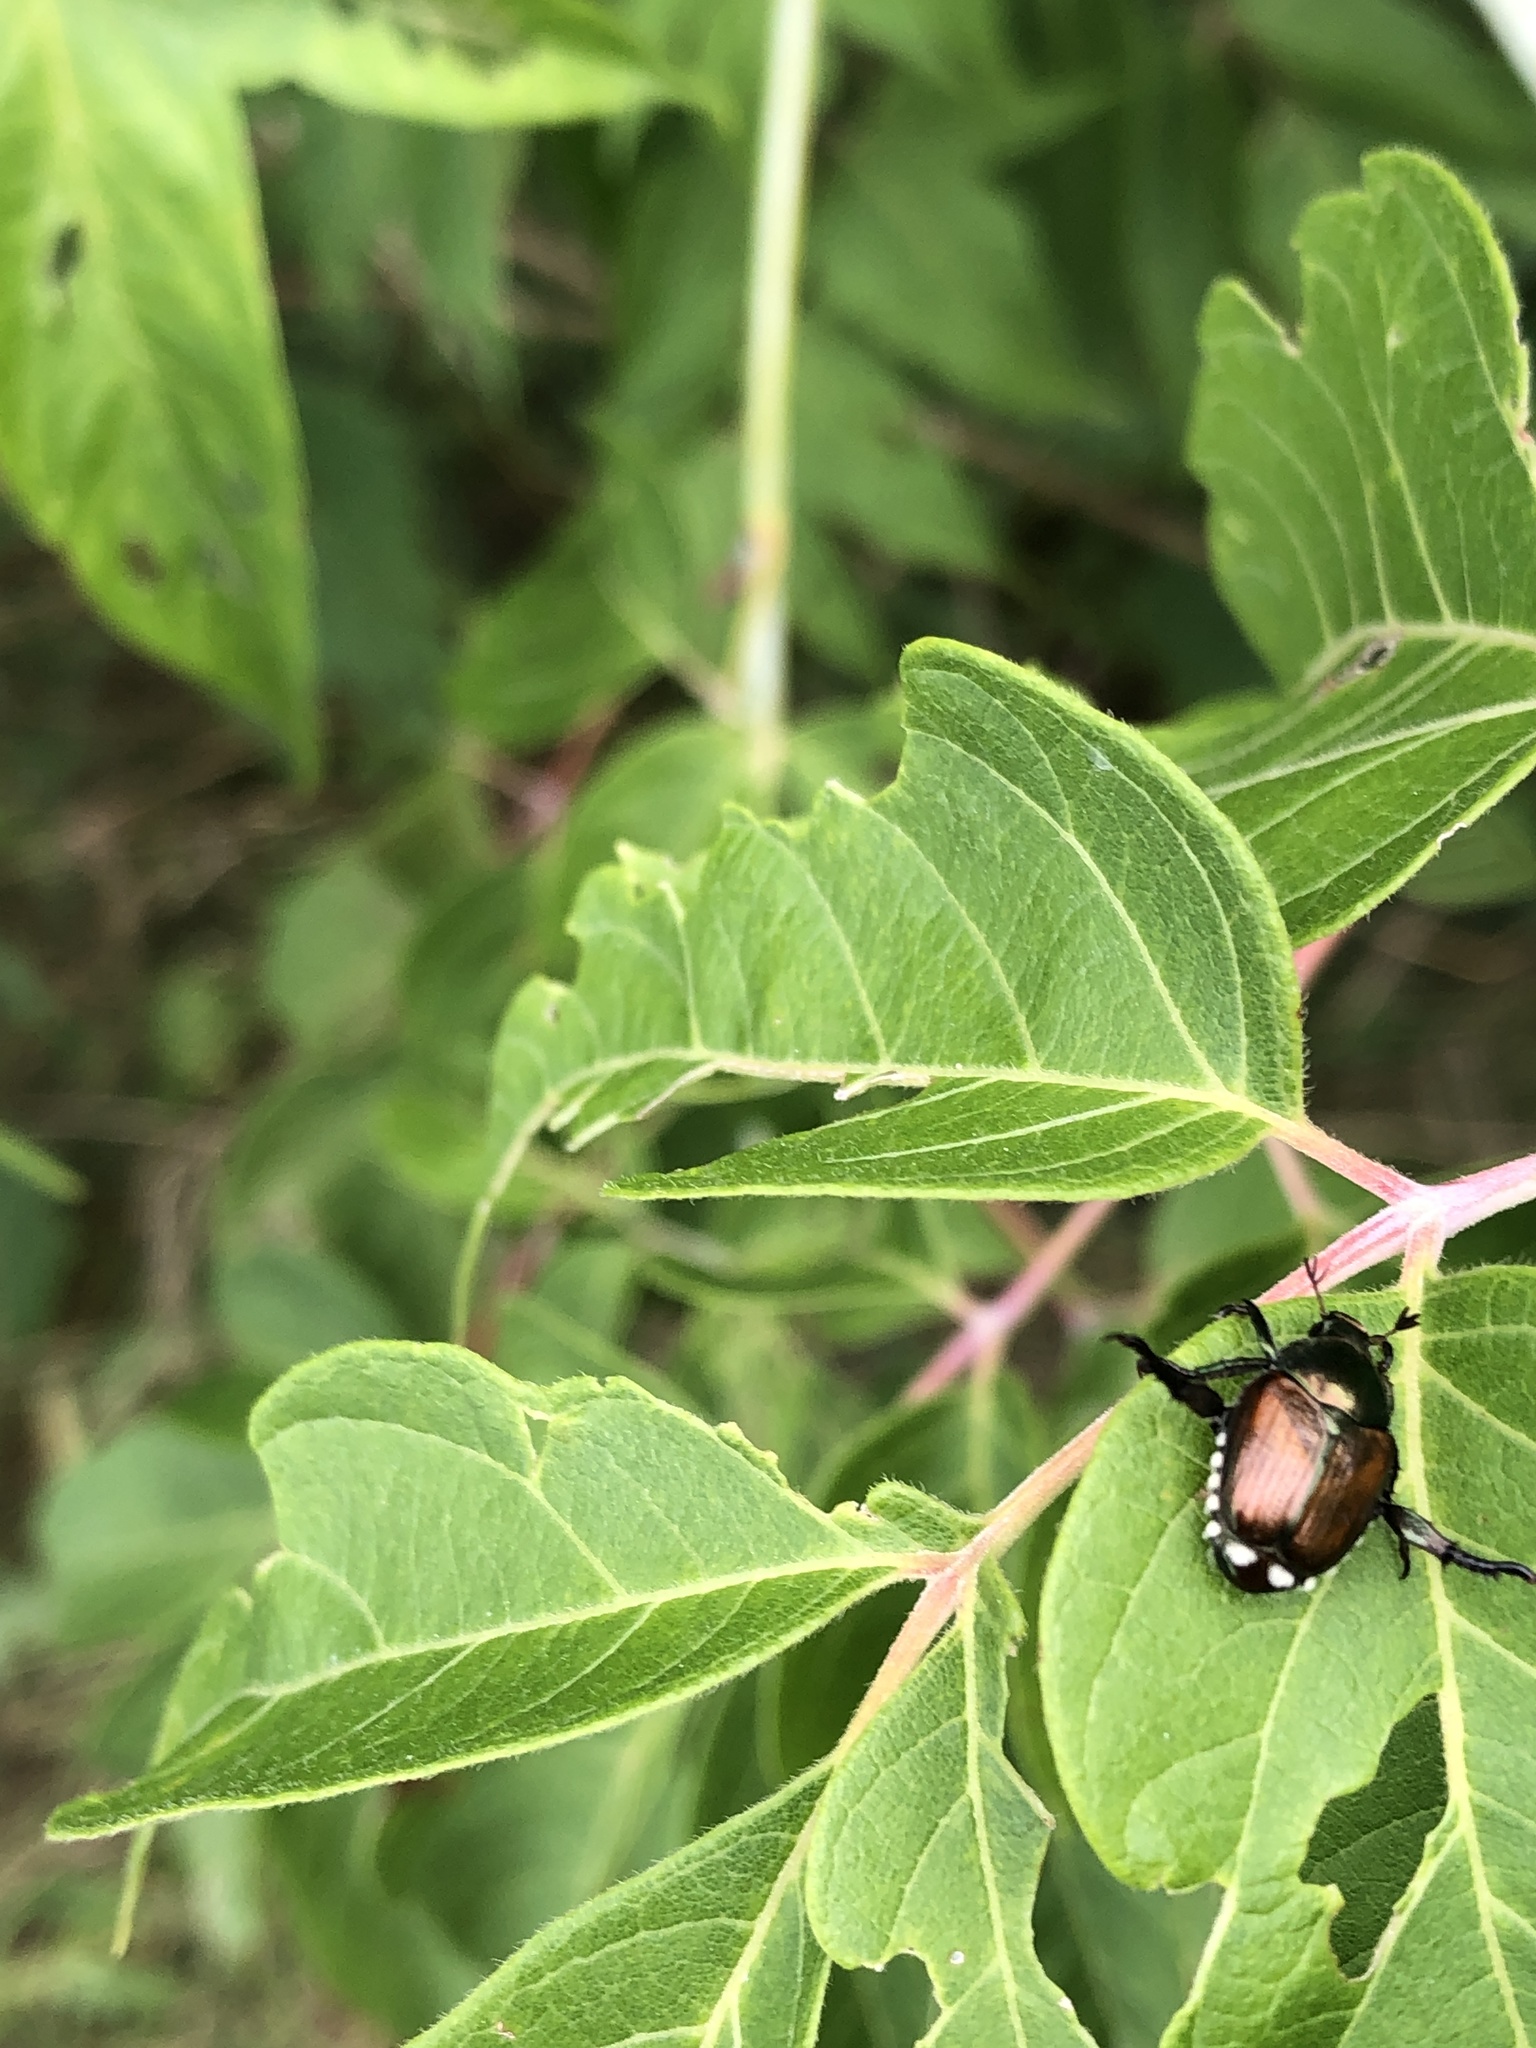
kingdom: Animalia
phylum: Arthropoda
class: Insecta
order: Coleoptera
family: Scarabaeidae
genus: Popillia
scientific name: Popillia japonica
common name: Japanese beetle
